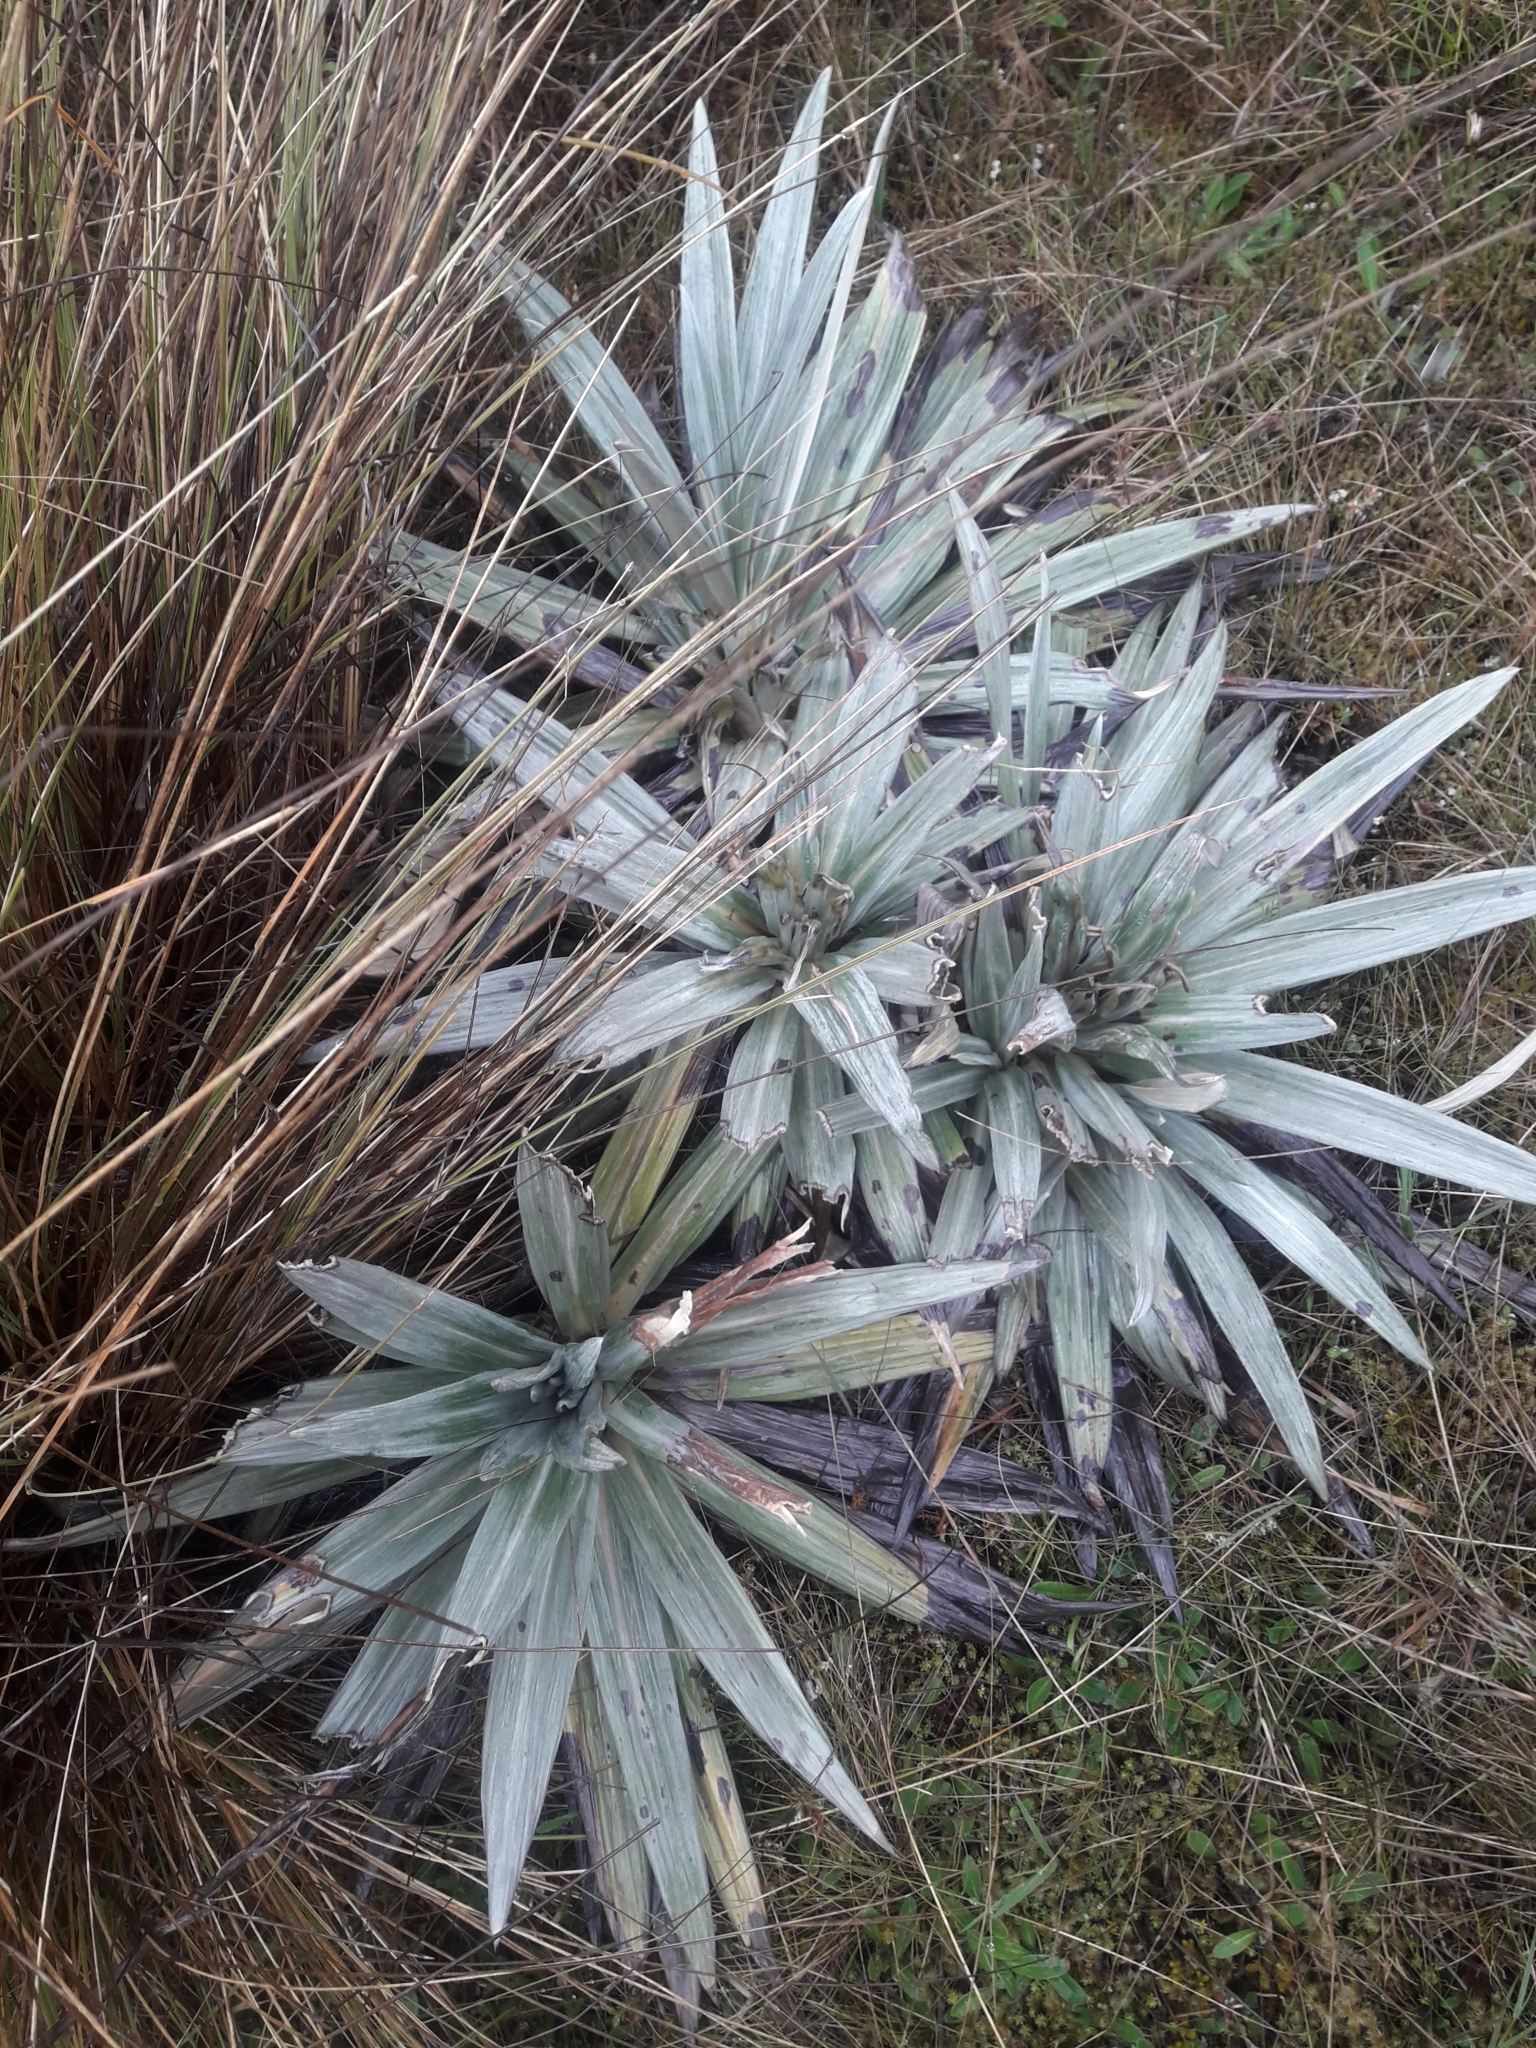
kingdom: Plantae
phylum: Tracheophyta
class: Magnoliopsida
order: Asterales
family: Asteraceae
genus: Celmisia
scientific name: Celmisia semicordata
